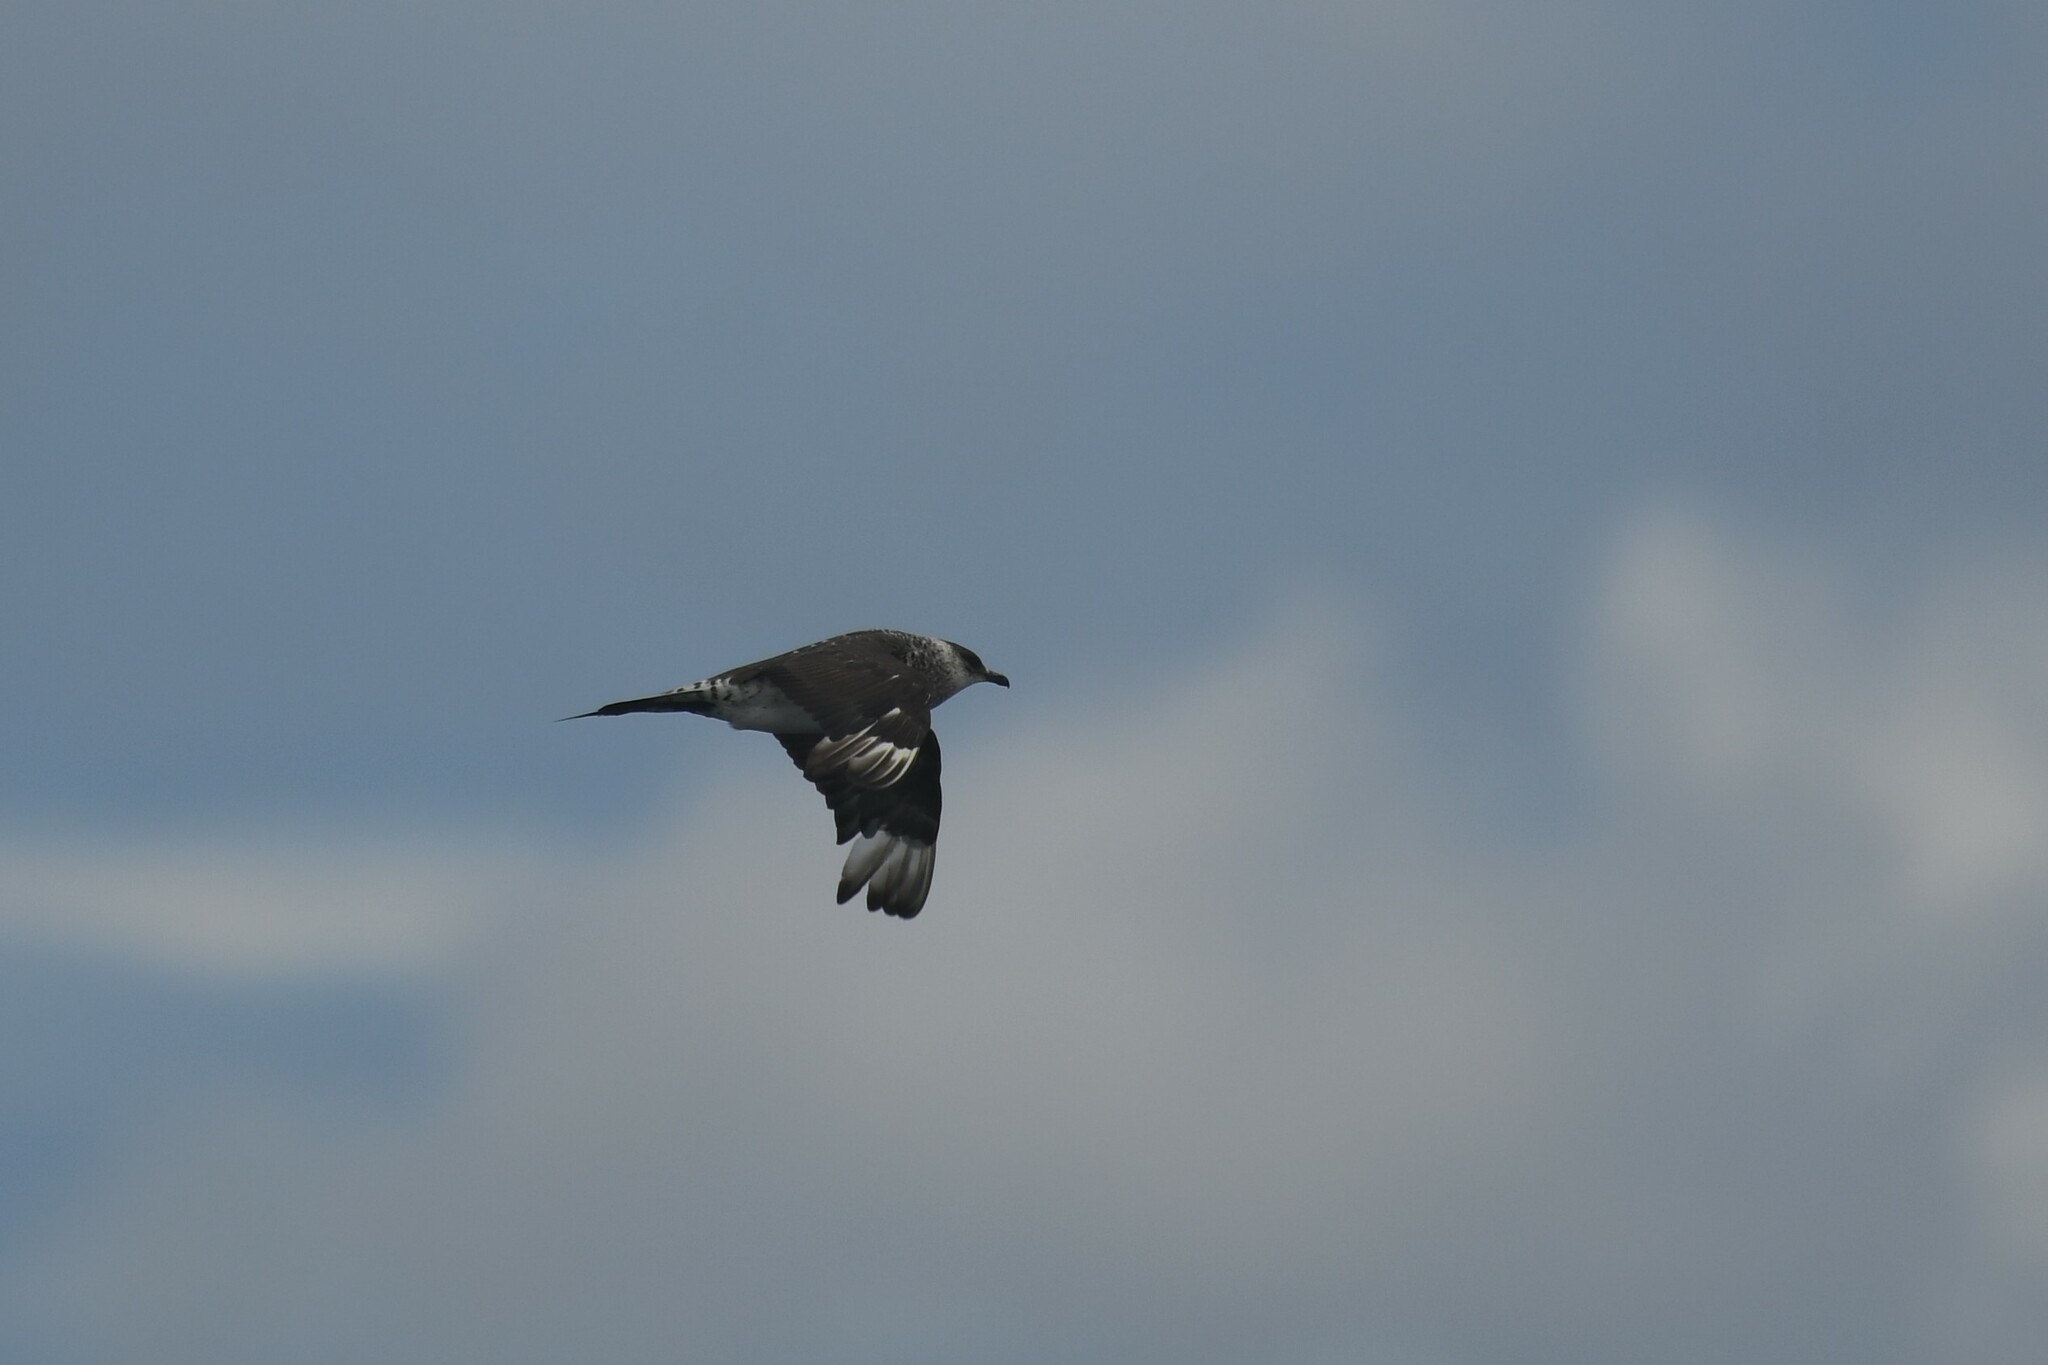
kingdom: Animalia
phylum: Chordata
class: Aves
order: Charadriiformes
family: Stercorariidae
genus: Stercorarius
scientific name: Stercorarius parasiticus
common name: Parasitic jaeger
